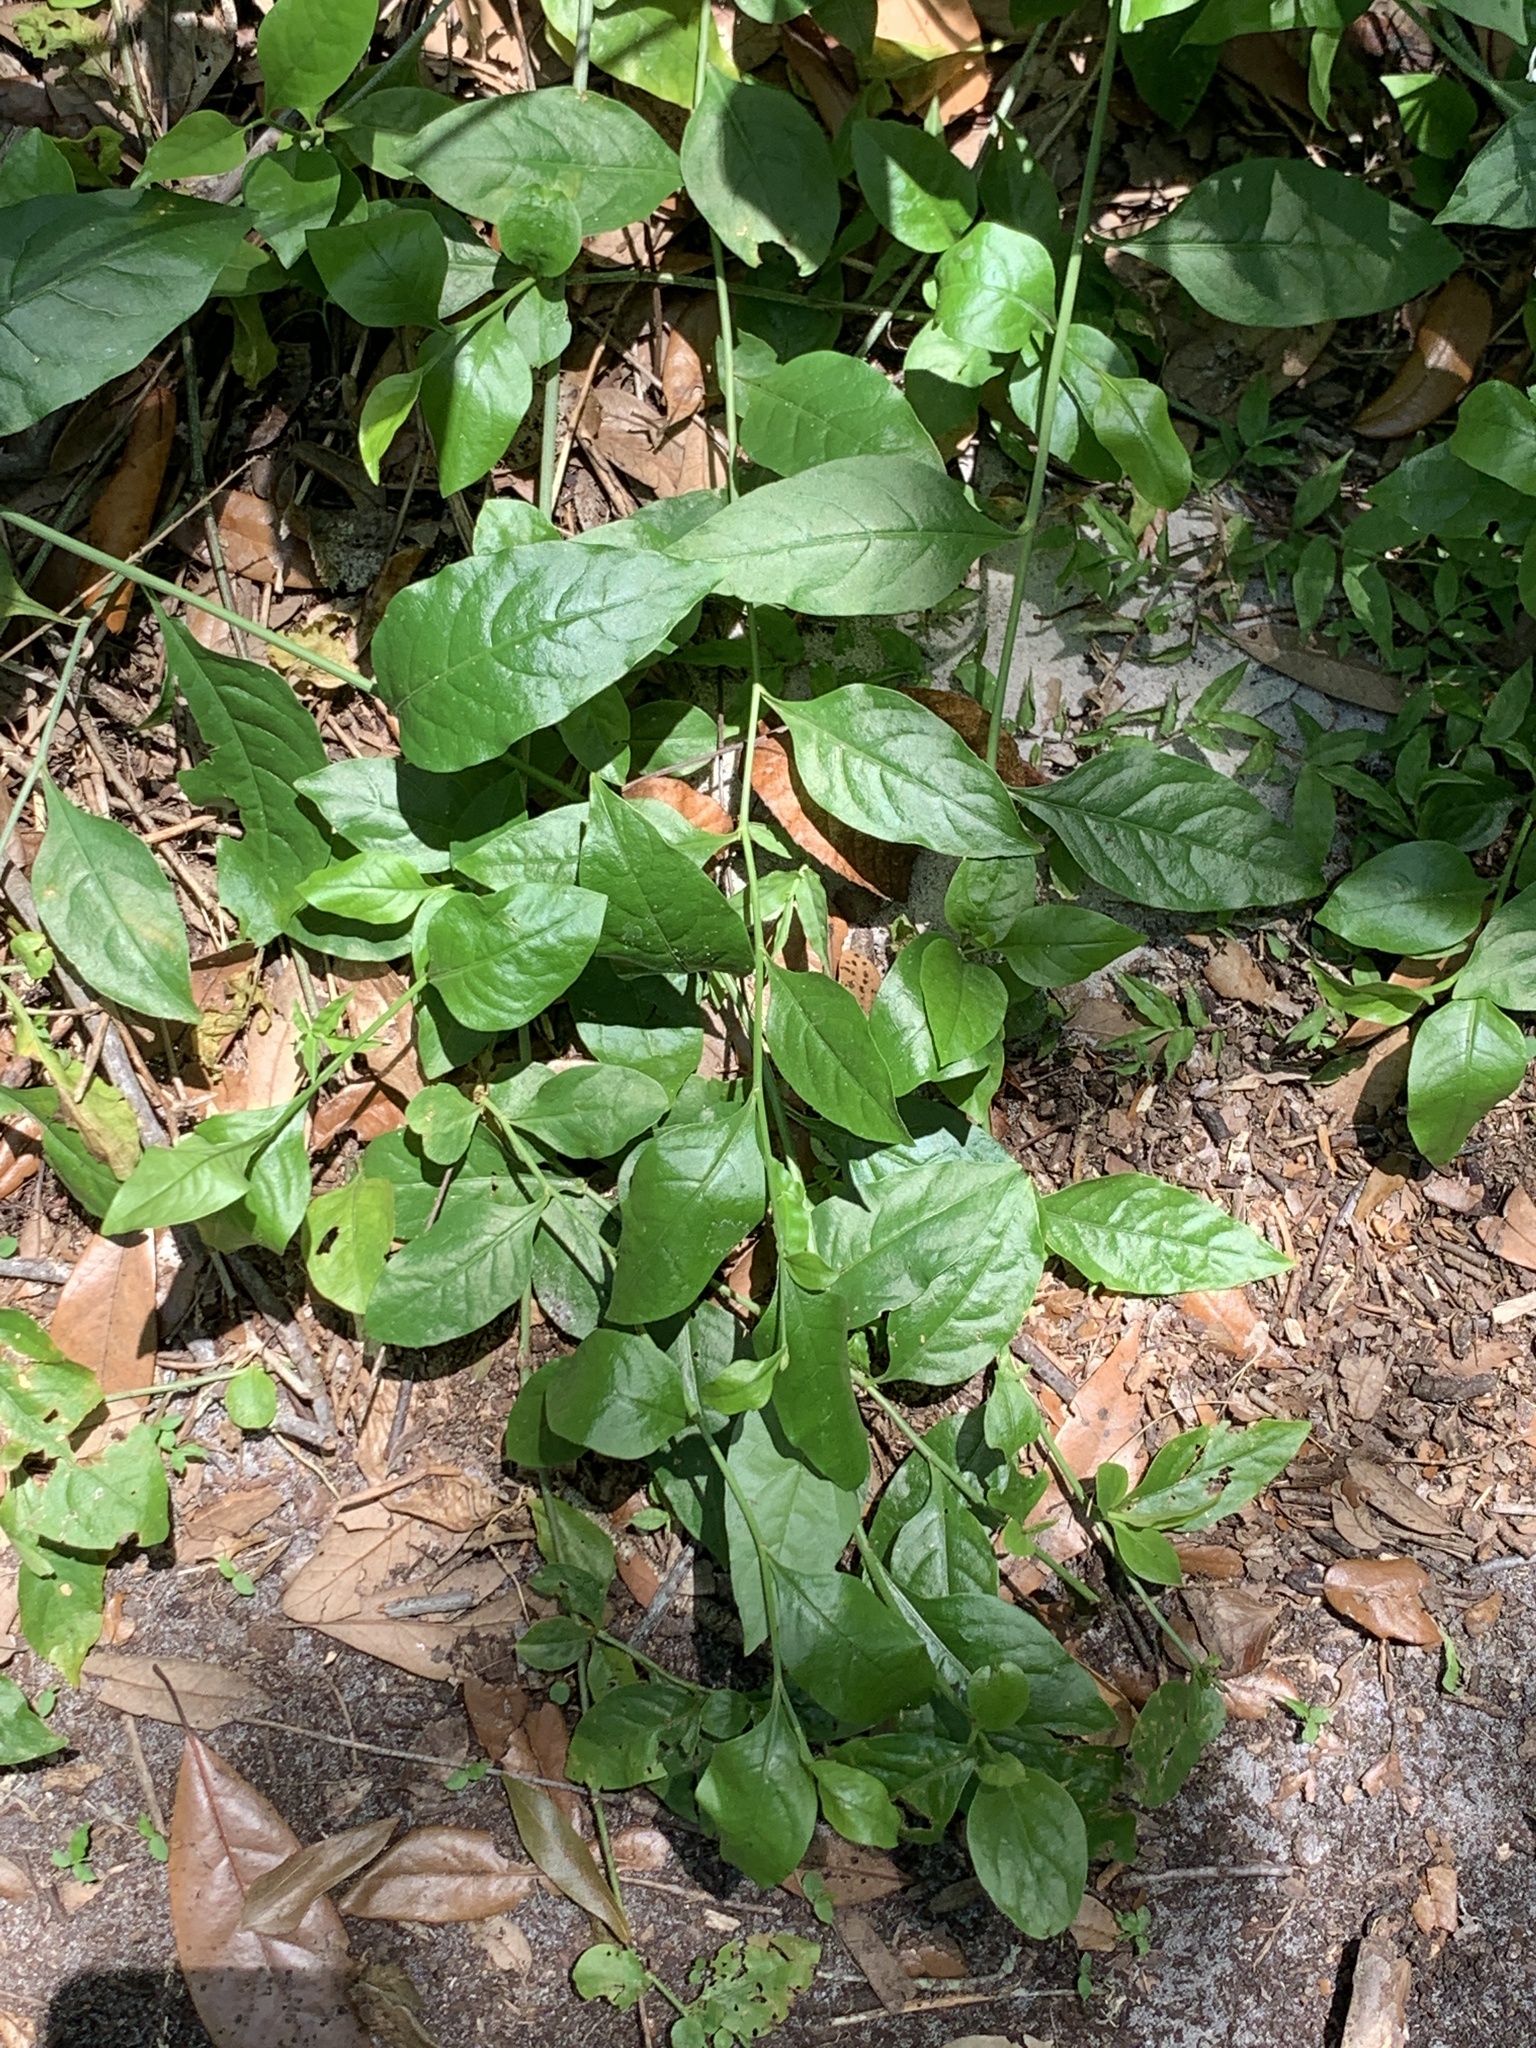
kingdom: Plantae
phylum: Tracheophyta
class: Magnoliopsida
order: Caryophyllales
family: Plumbaginaceae
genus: Plumbago
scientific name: Plumbago zeylanica
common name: Doctorbush
